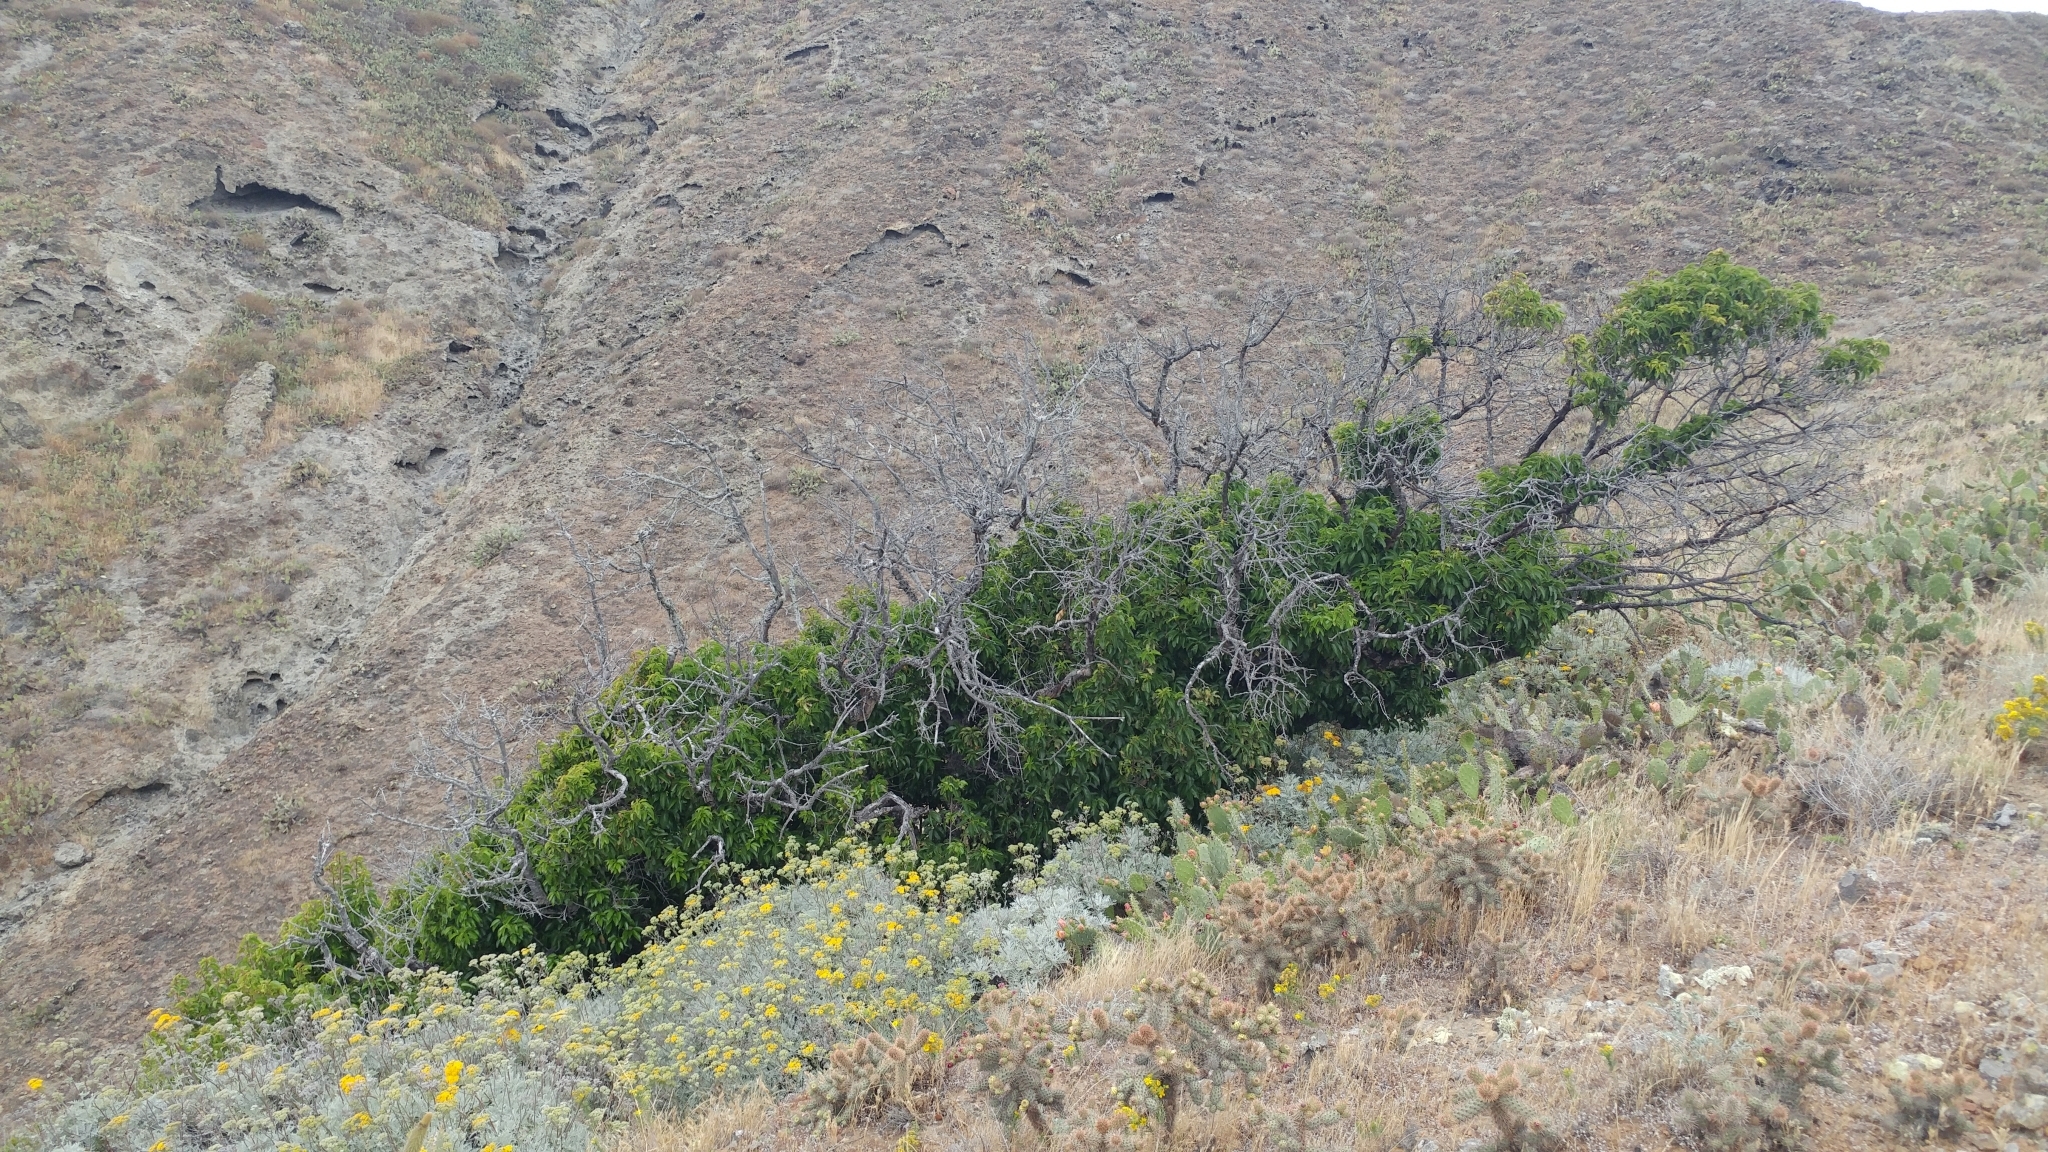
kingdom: Plantae
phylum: Tracheophyta
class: Magnoliopsida
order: Rosales
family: Rosaceae
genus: Prunus
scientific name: Prunus ilicifolia
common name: Hollyleaf cherry
